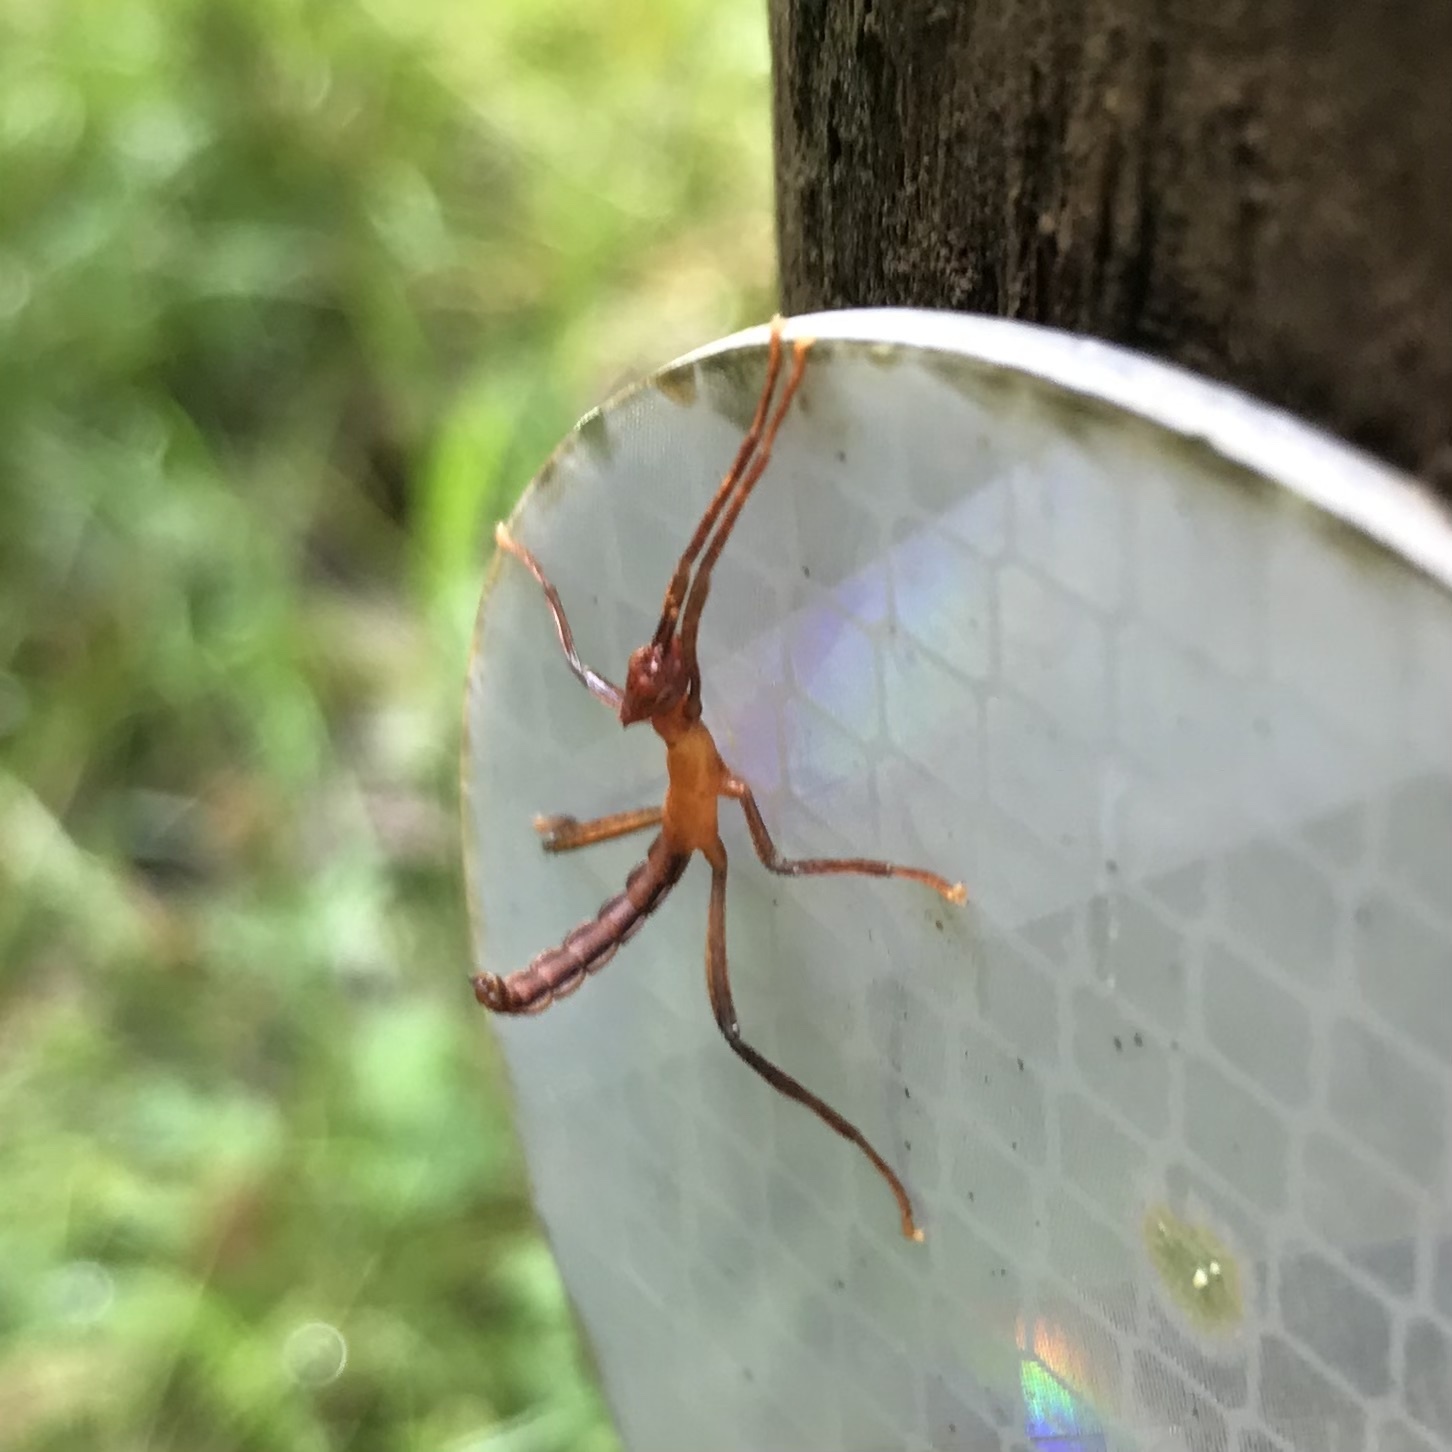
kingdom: Animalia
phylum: Arthropoda
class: Insecta
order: Phasmida
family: Phasmatidae
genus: Extatosoma
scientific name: Extatosoma tiaratum
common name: Macleay's spectre
